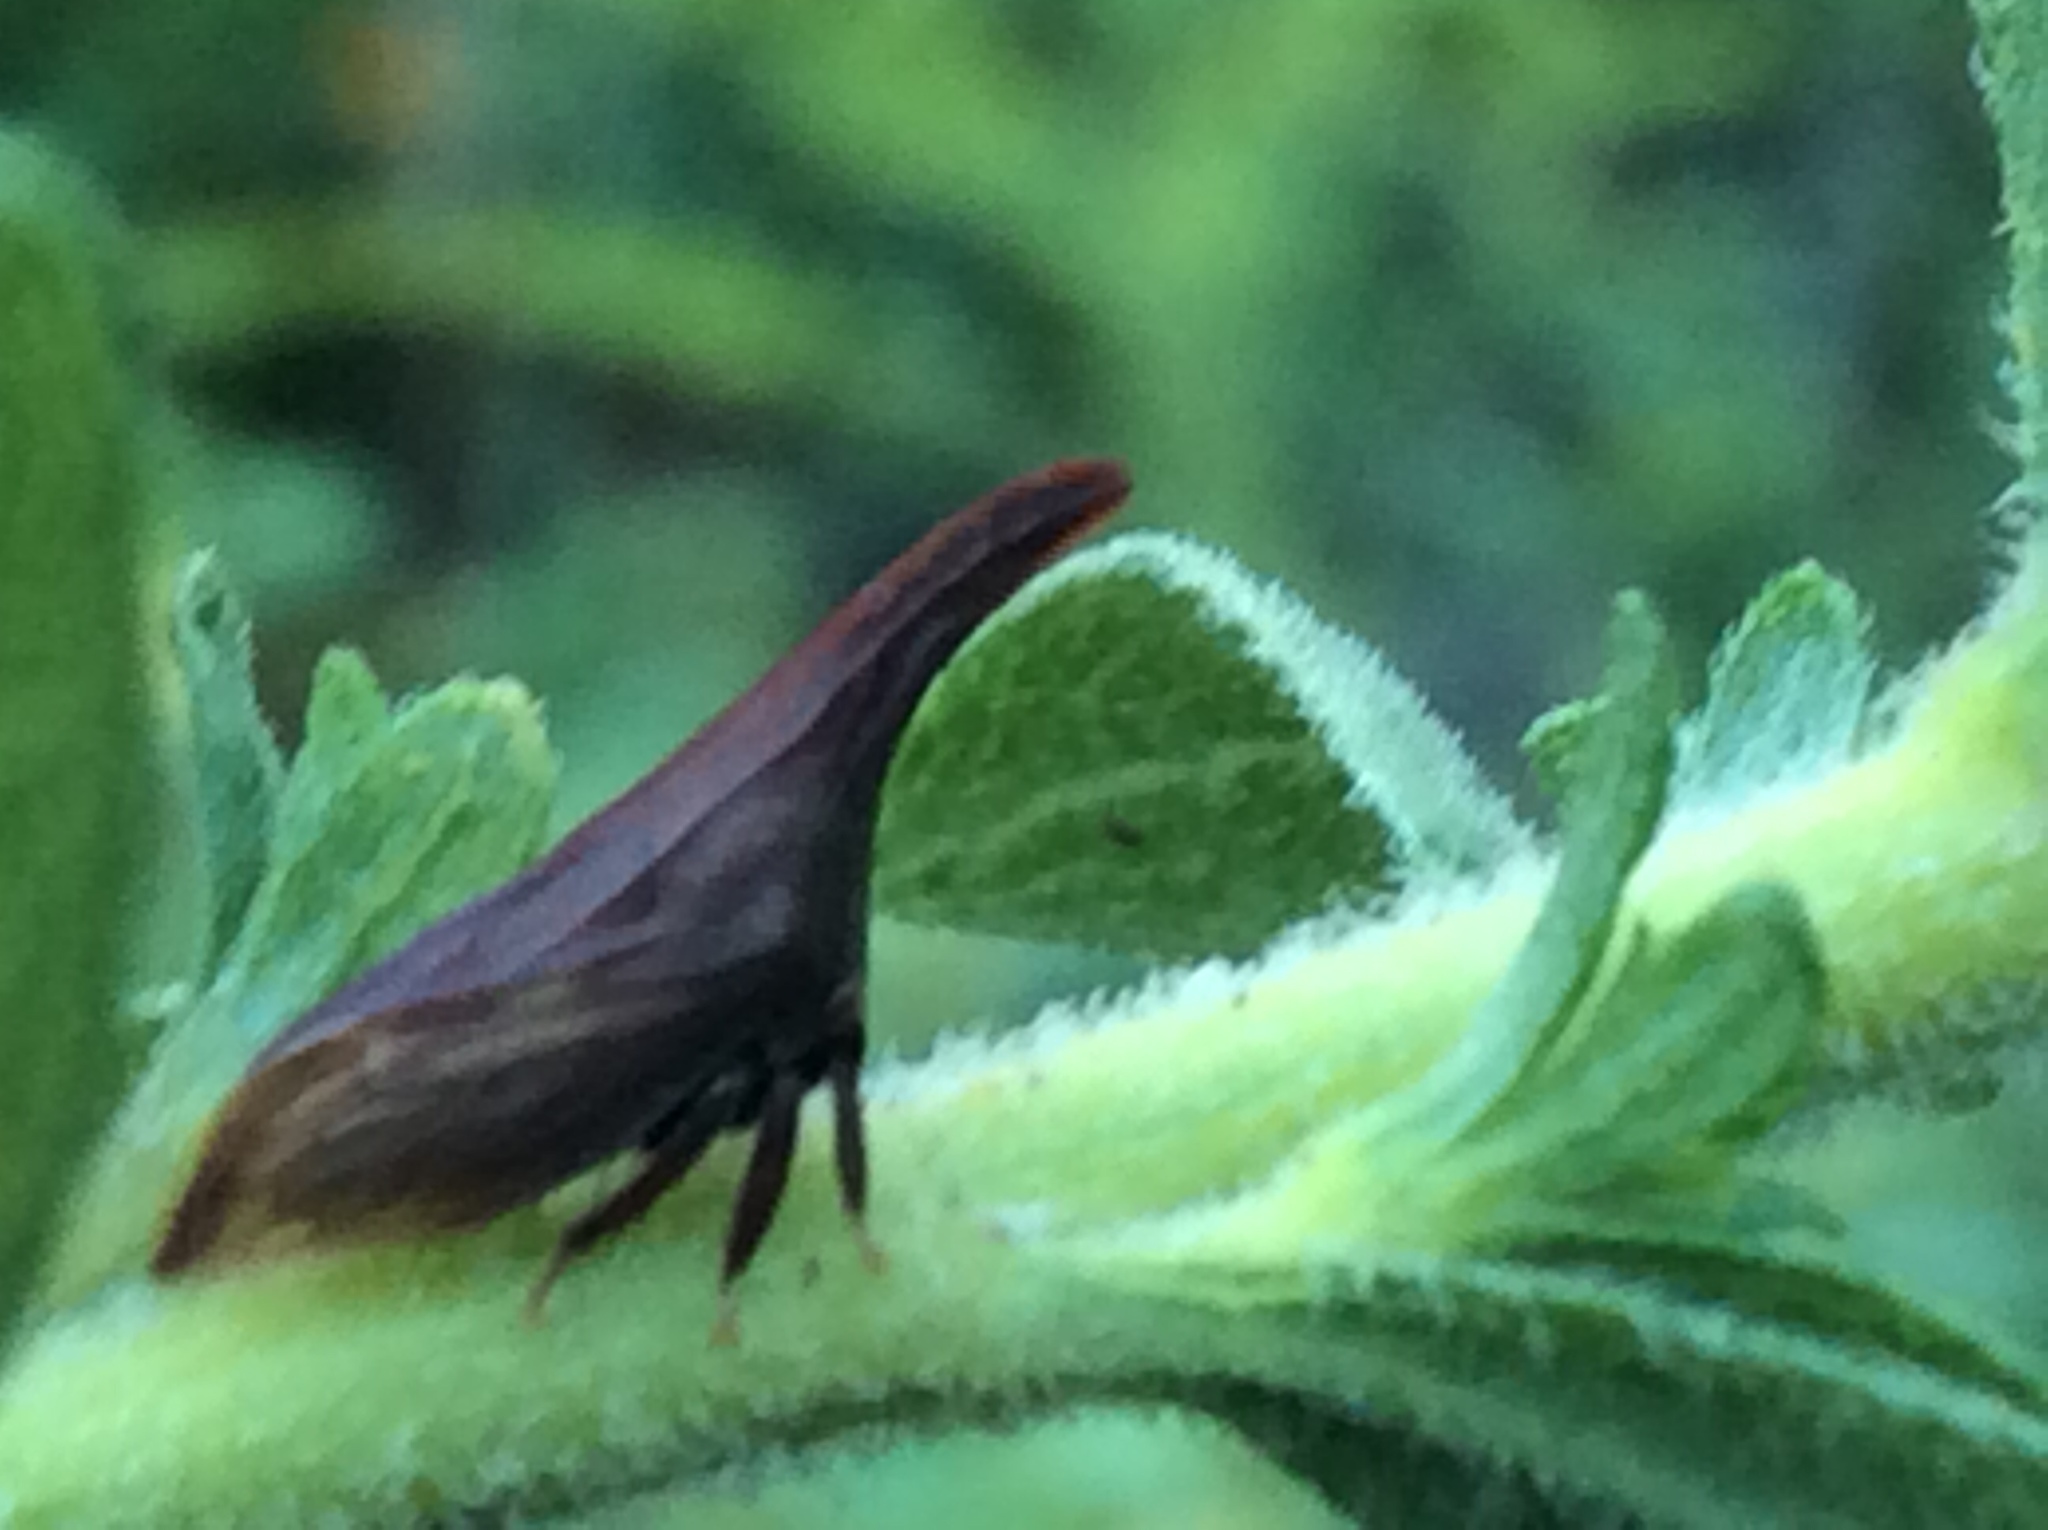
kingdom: Animalia
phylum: Arthropoda
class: Insecta
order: Hemiptera
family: Membracidae
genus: Enchenopa
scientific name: Enchenopa latipes
